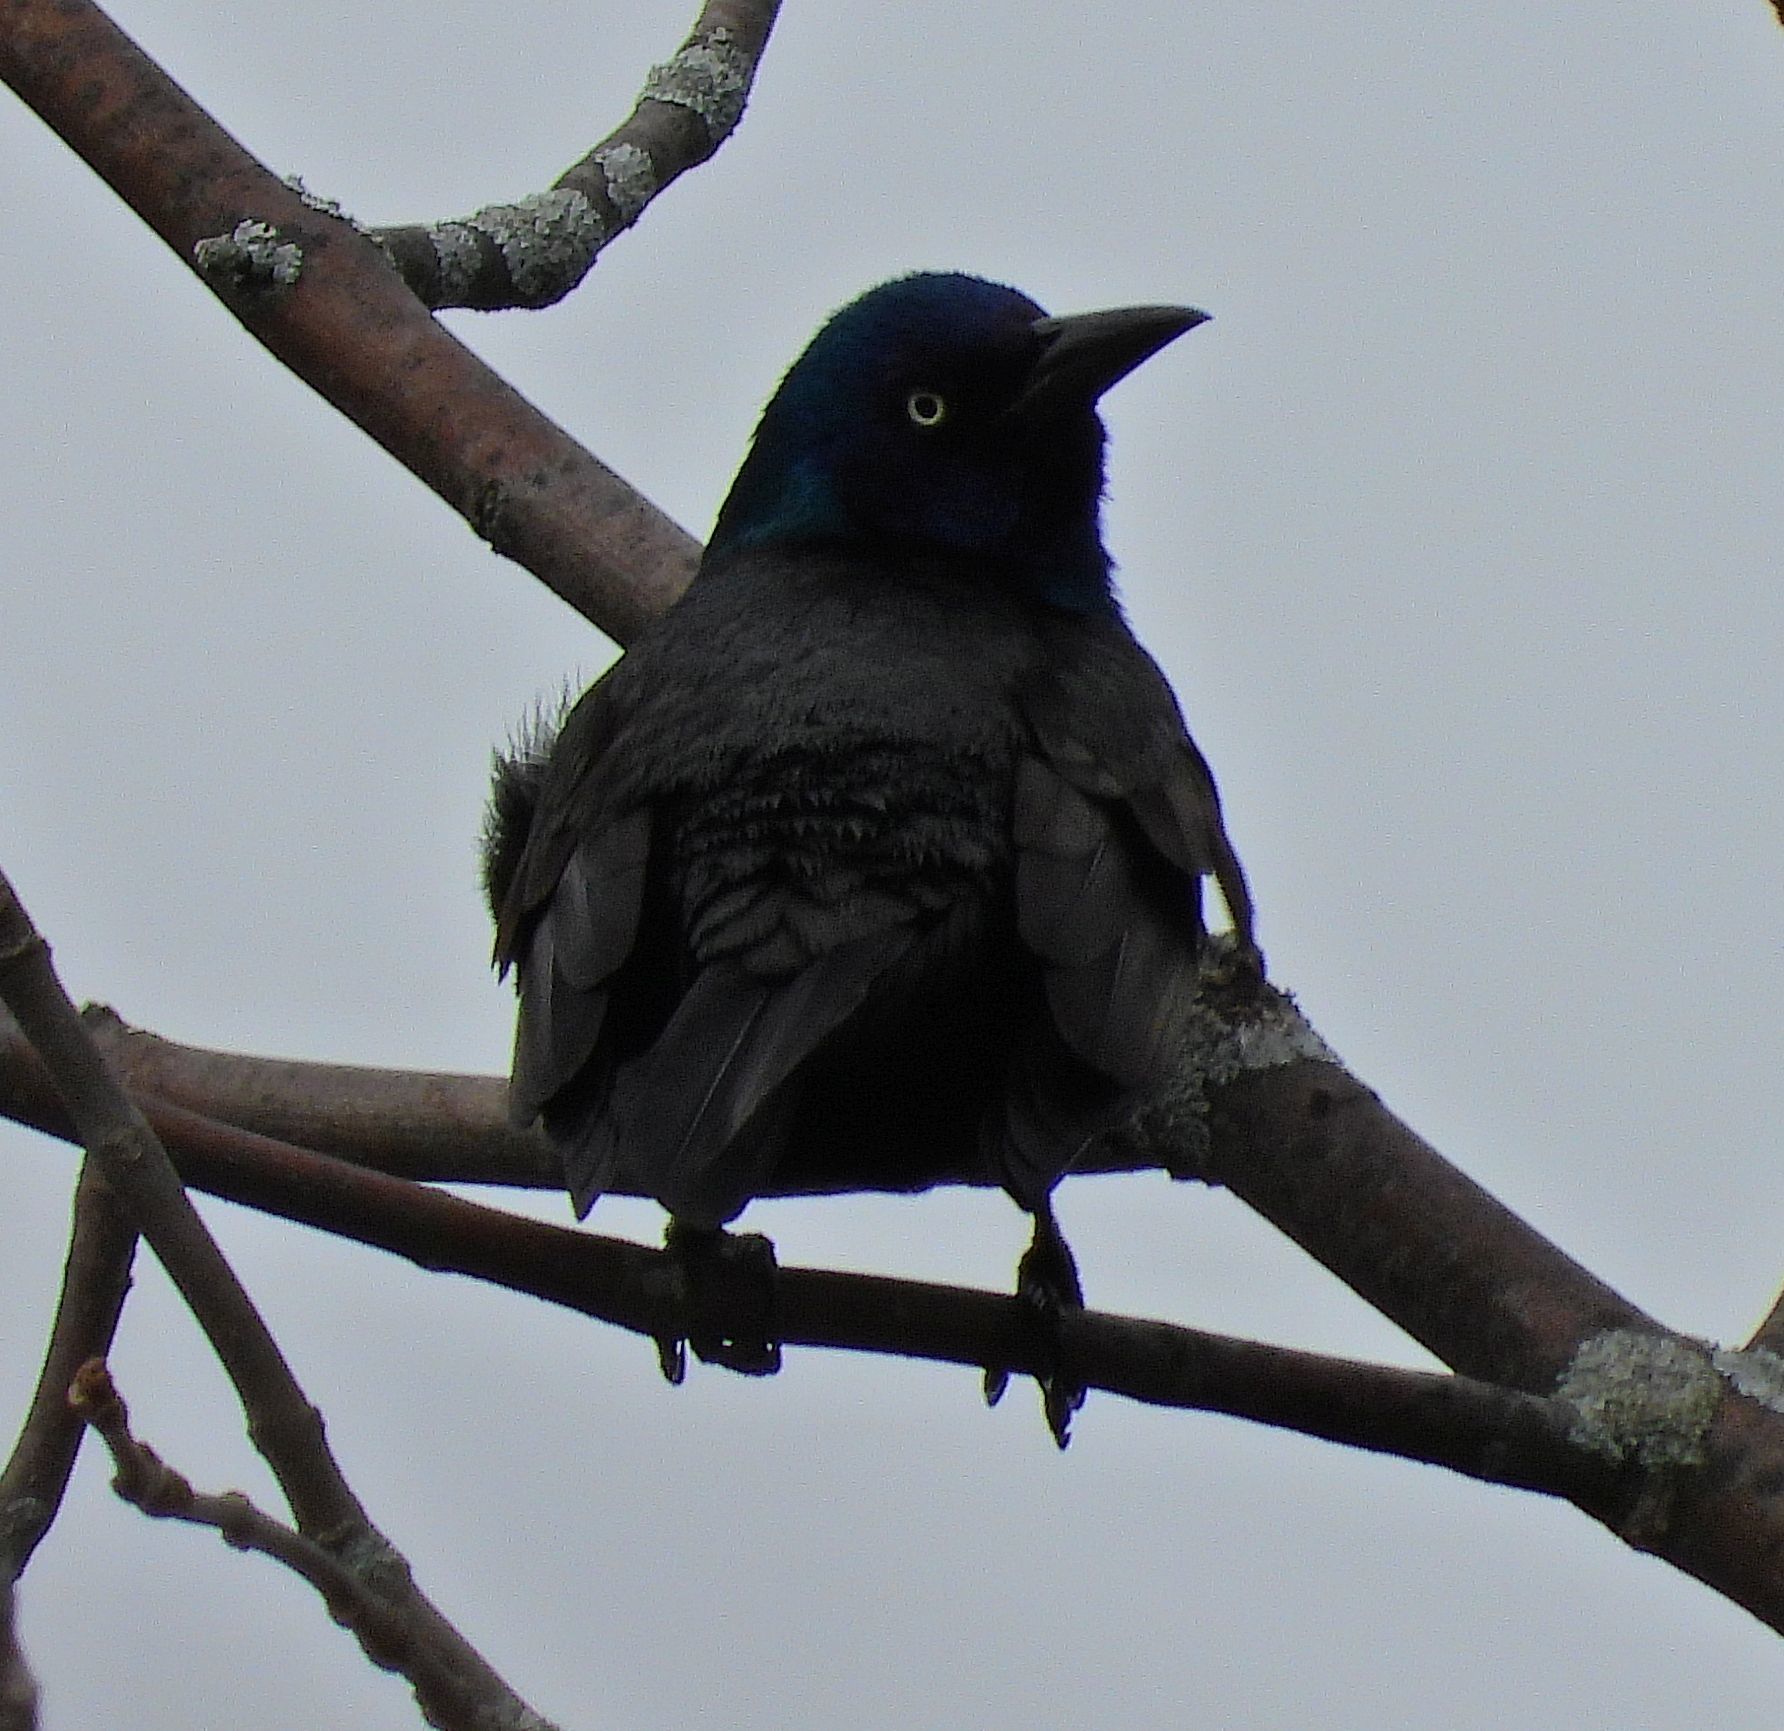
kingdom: Animalia
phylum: Chordata
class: Aves
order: Passeriformes
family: Icteridae
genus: Quiscalus
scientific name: Quiscalus quiscula
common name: Common grackle
